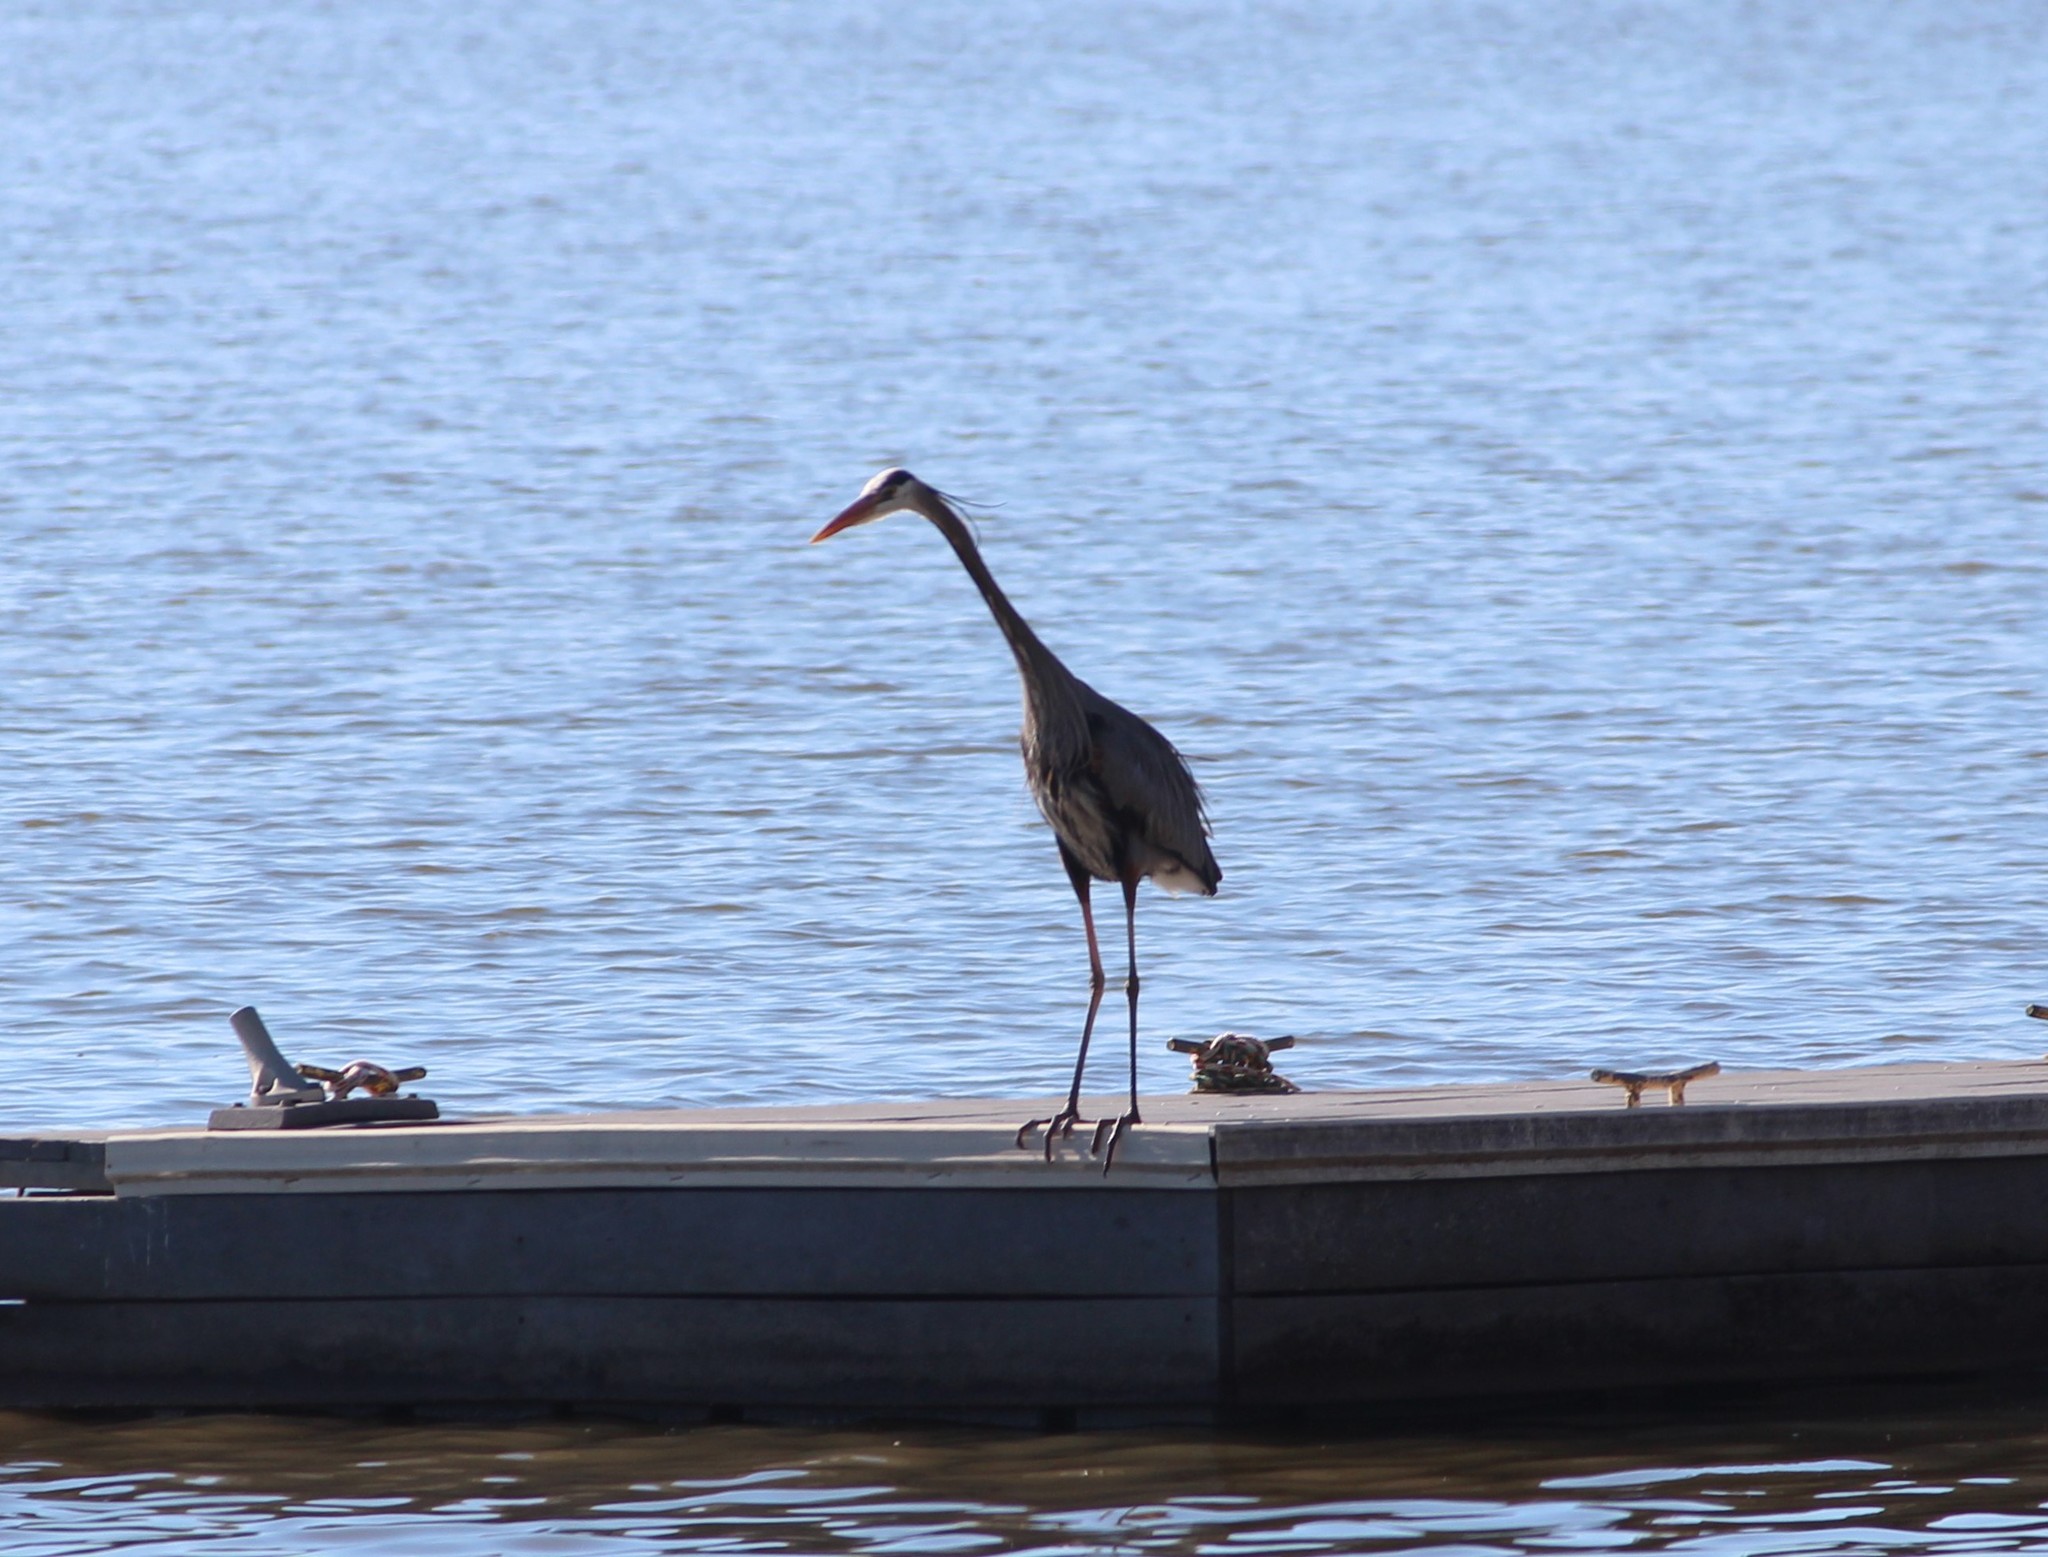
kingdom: Animalia
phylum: Chordata
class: Aves
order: Pelecaniformes
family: Ardeidae
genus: Ardea
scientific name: Ardea herodias
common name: Great blue heron
